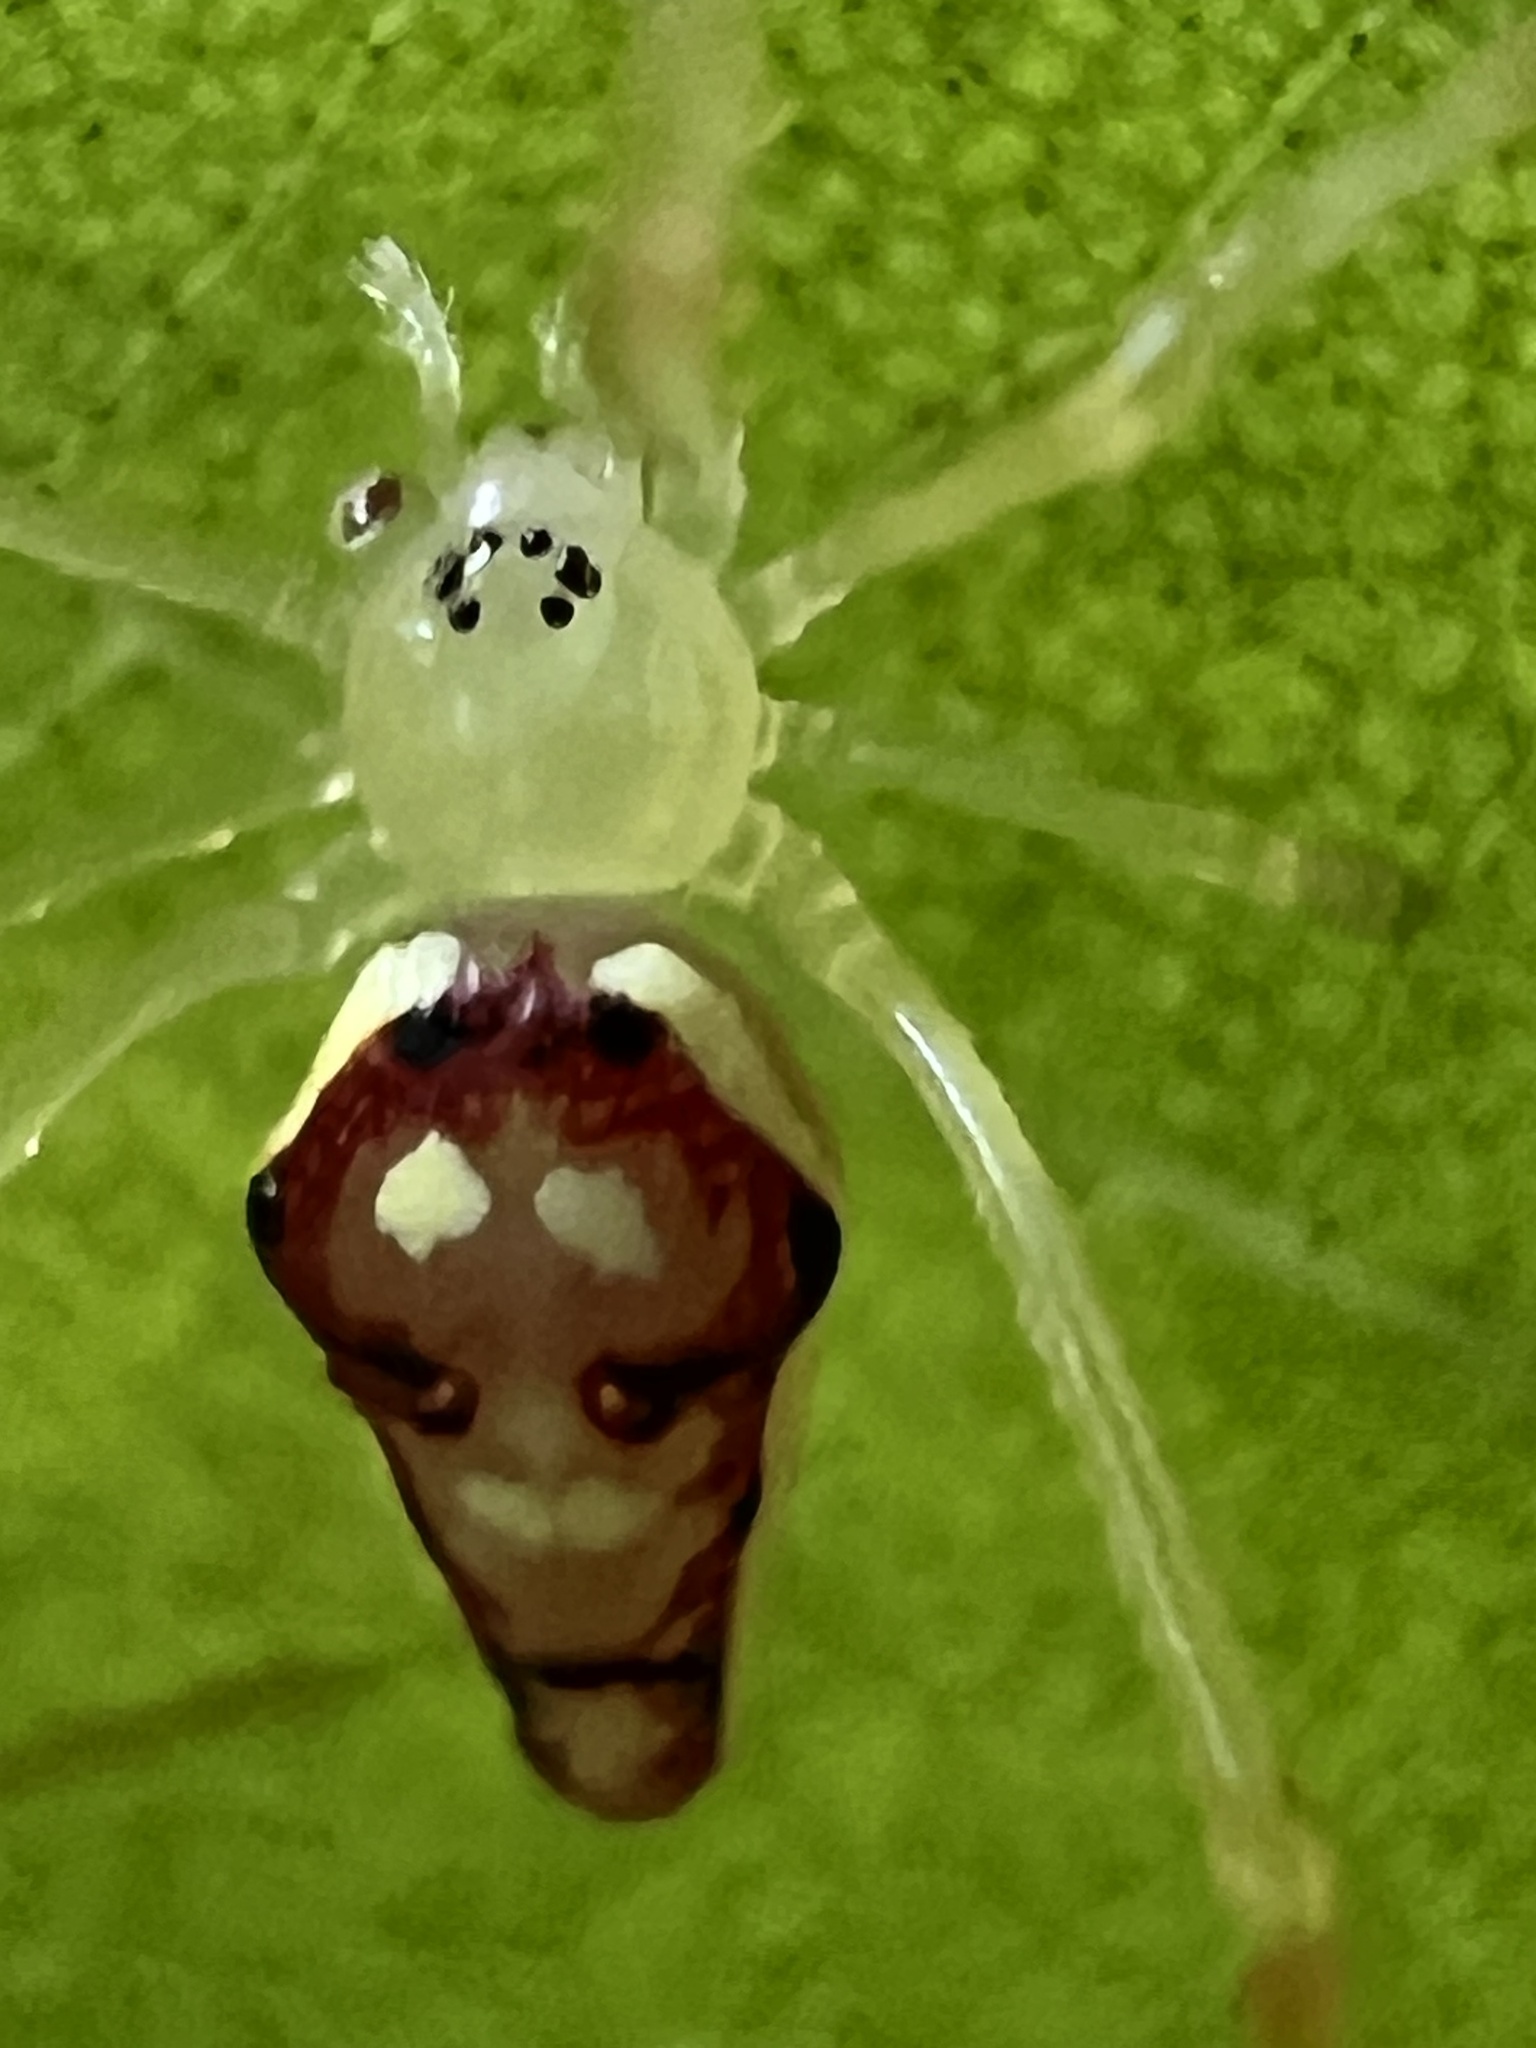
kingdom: Animalia
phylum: Arthropoda
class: Arachnida
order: Araneae
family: Theridiidae
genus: Spintharus
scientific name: Spintharus flavidus
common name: Cobweb spiders
